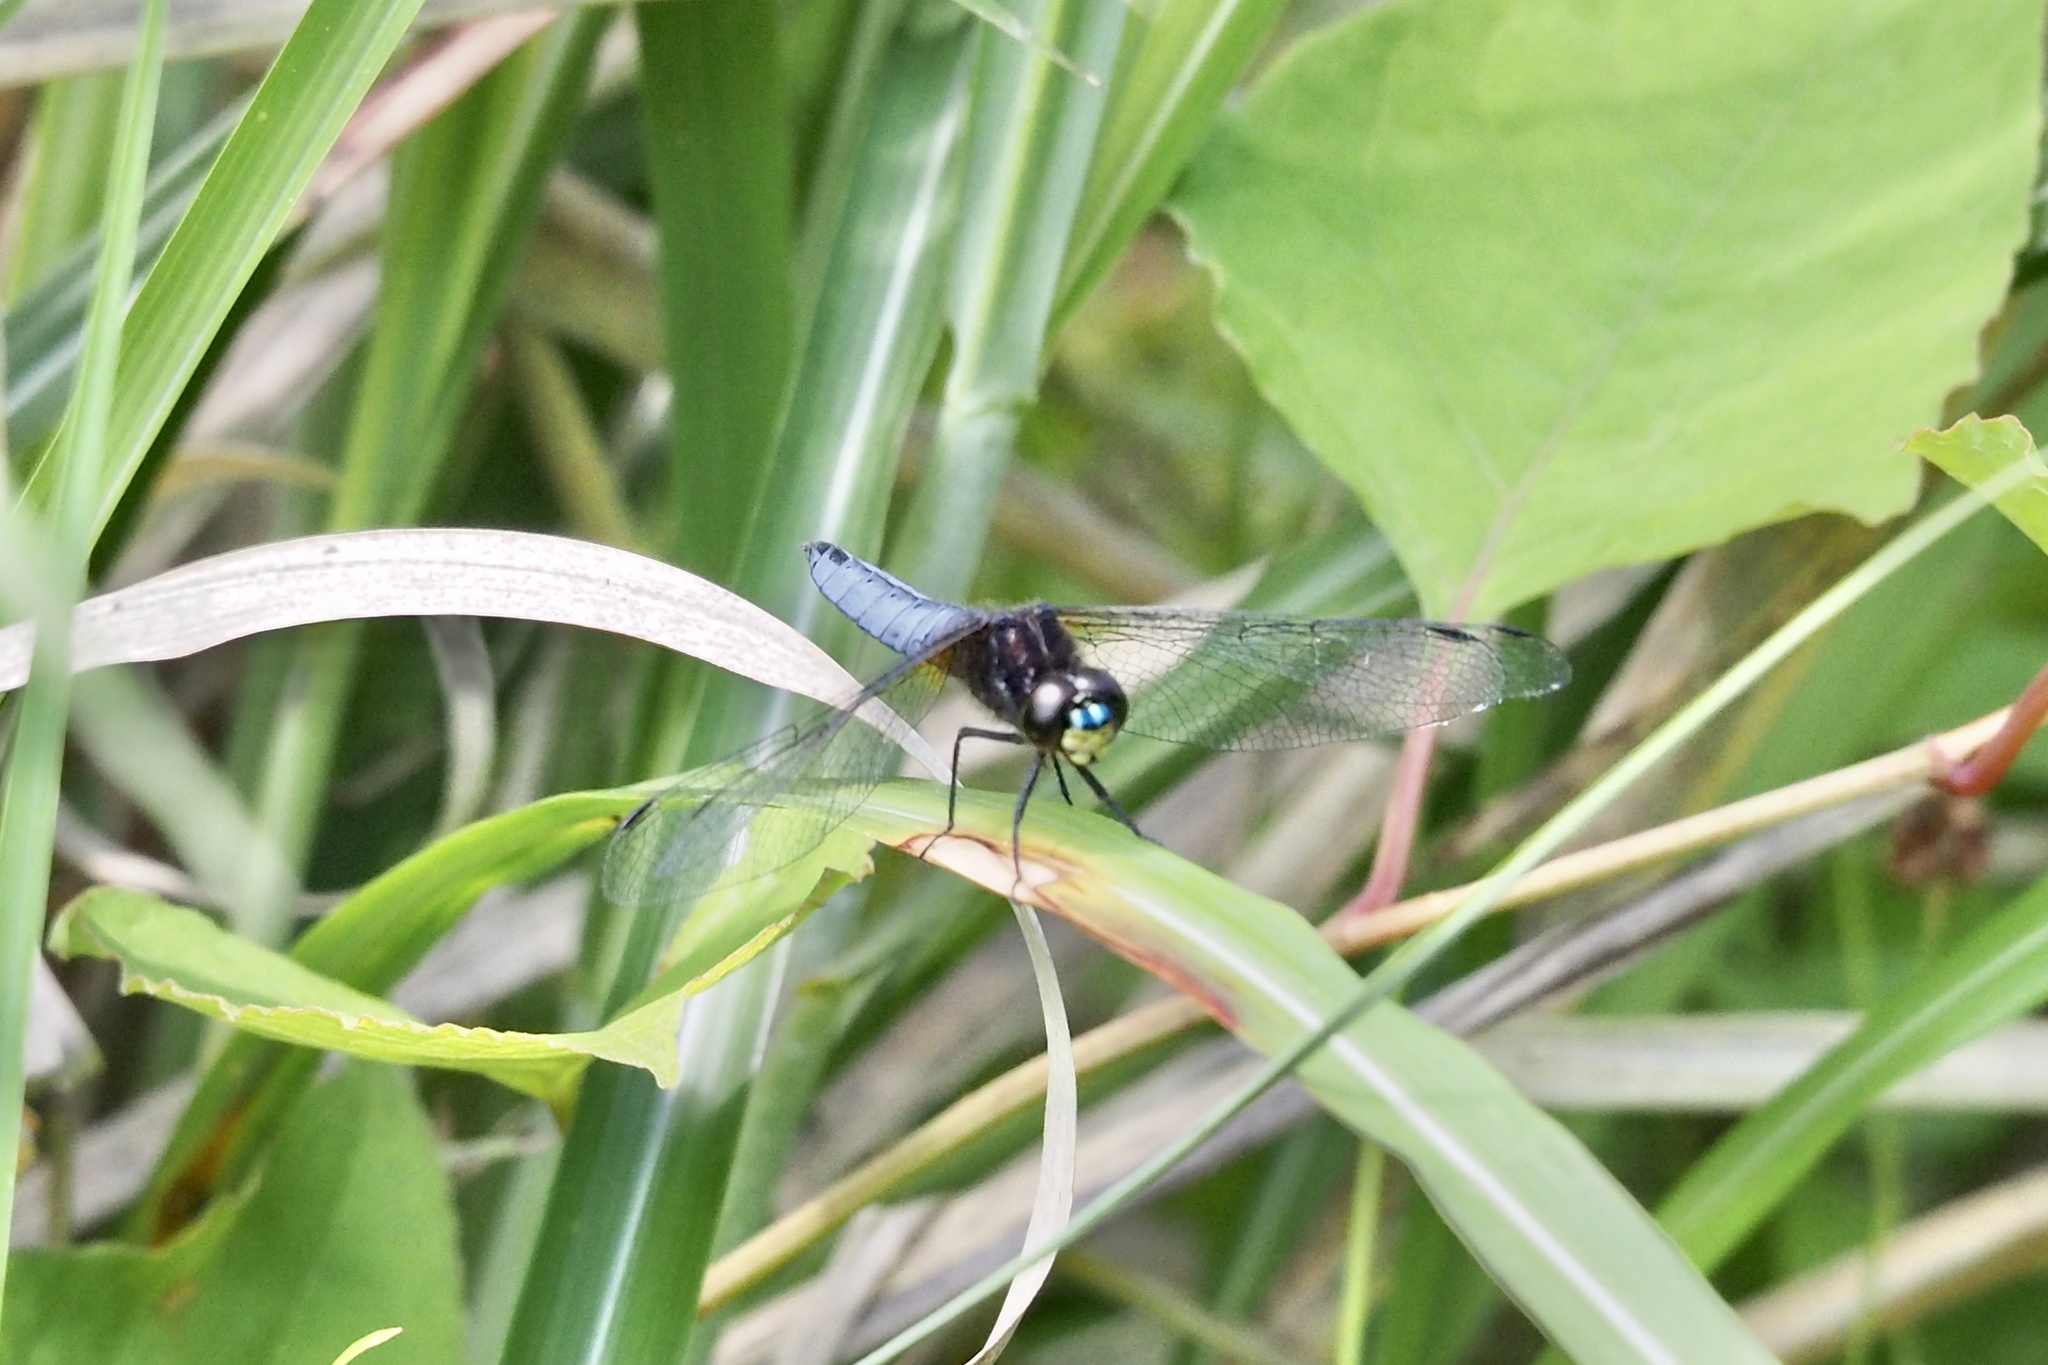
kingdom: Animalia
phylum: Arthropoda
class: Insecta
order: Odonata
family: Libellulidae
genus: Lyriothemis
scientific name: Lyriothemis pachygastra
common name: Wide-bellied skimmer
